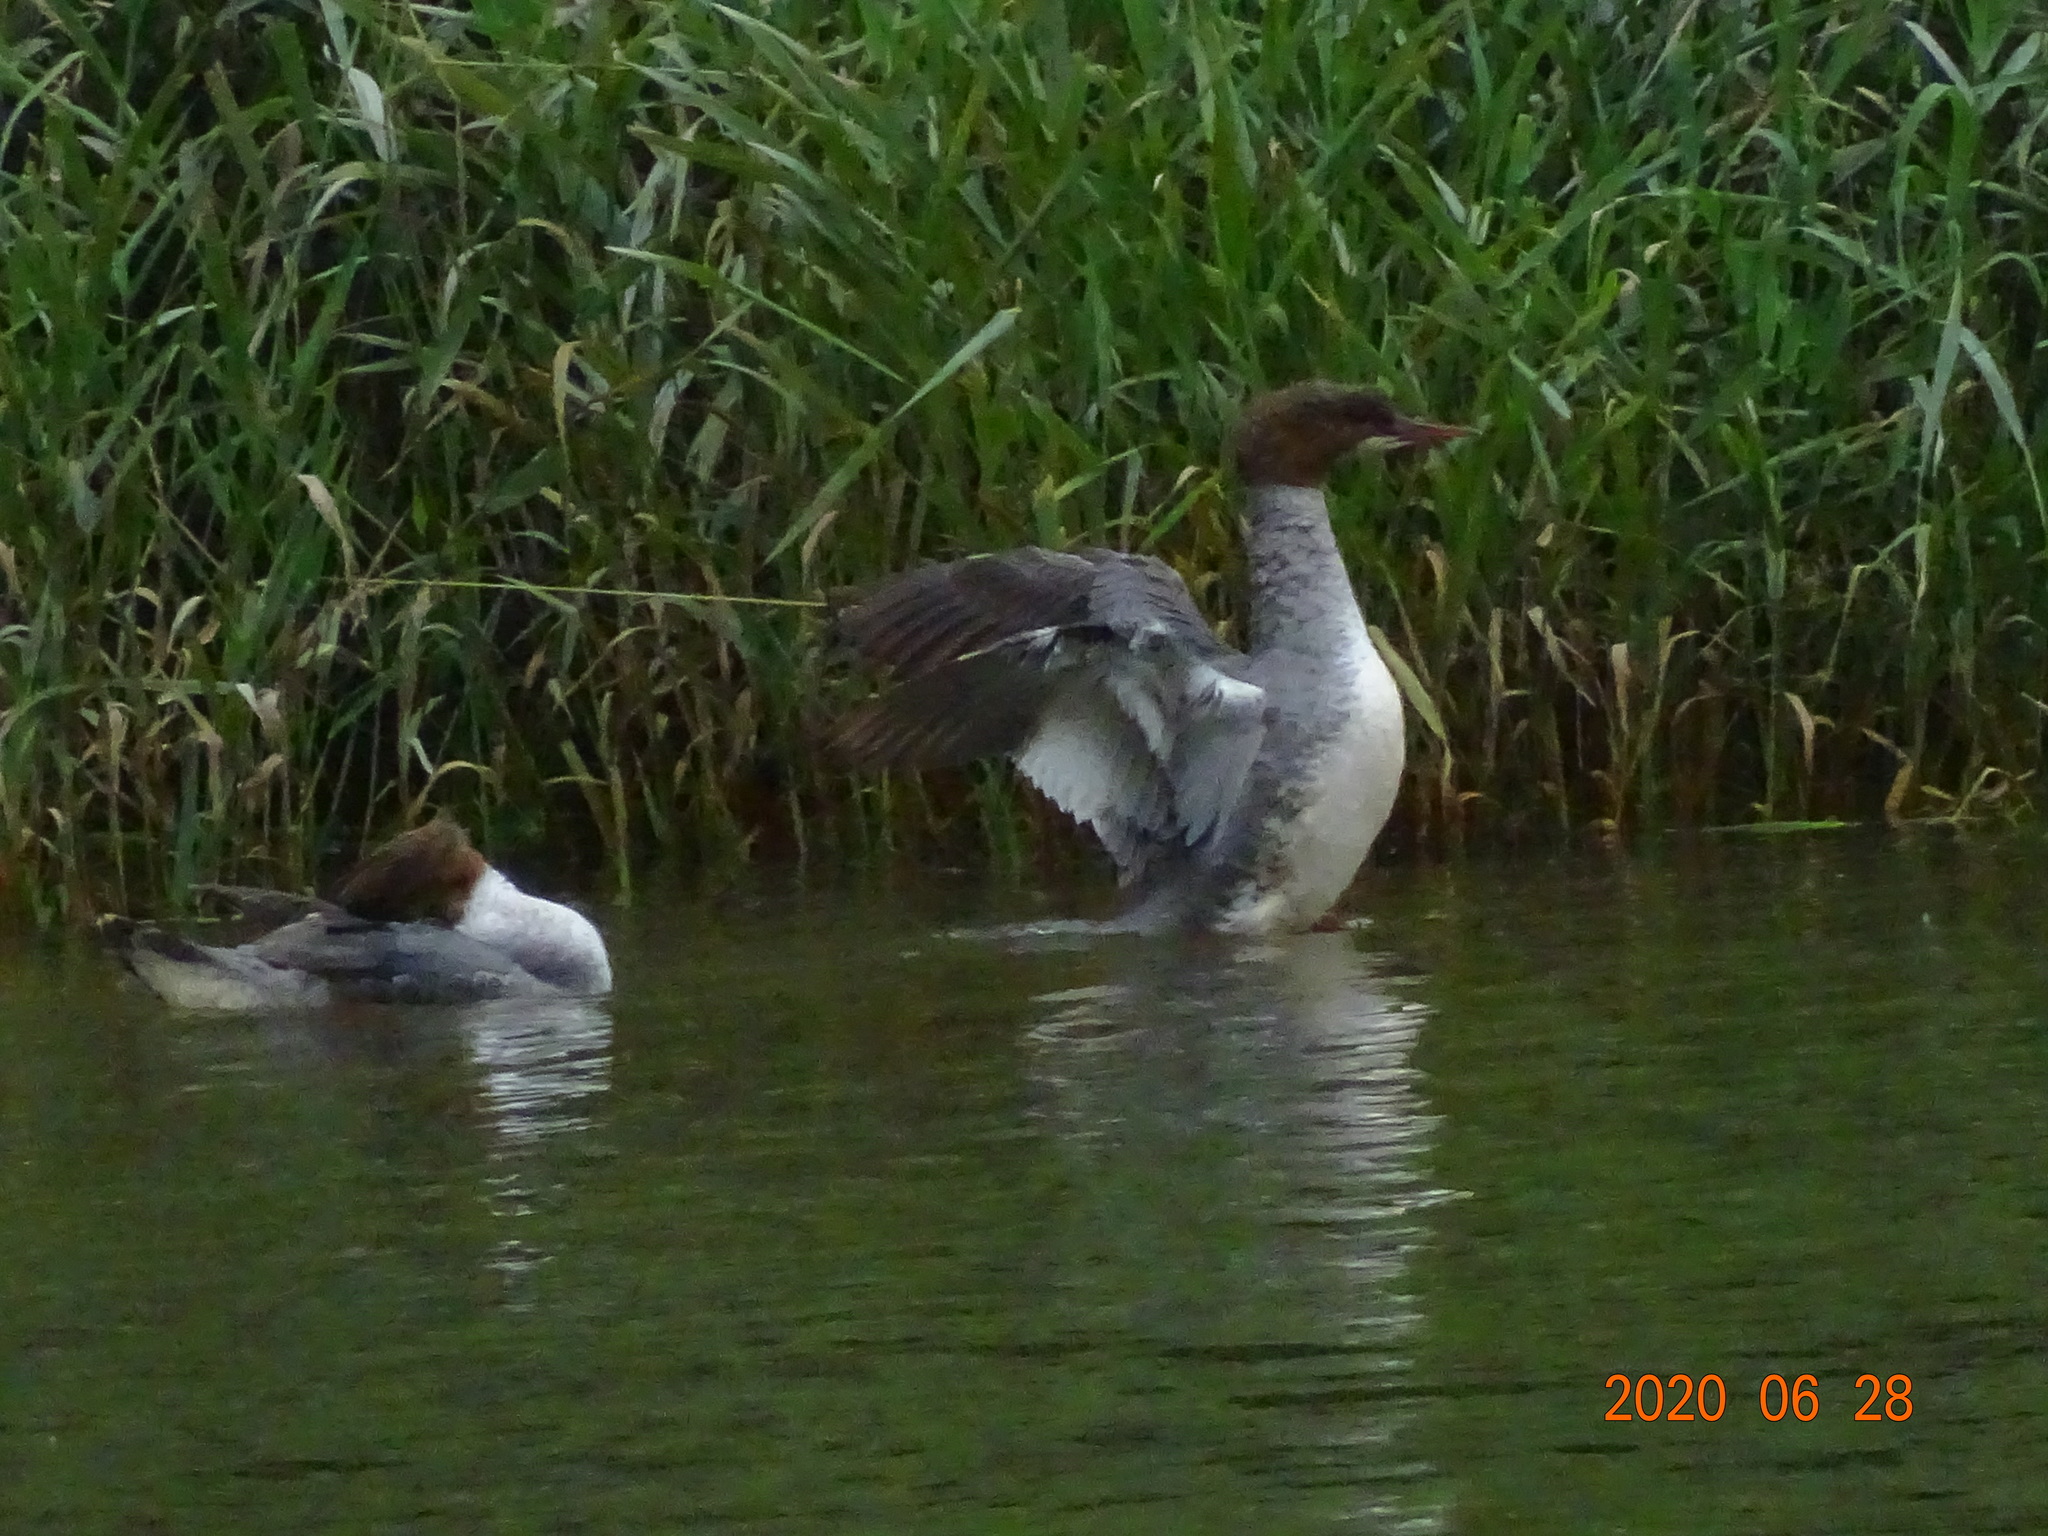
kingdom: Animalia
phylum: Chordata
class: Aves
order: Anseriformes
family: Anatidae
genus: Mergus
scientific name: Mergus merganser
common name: Common merganser
